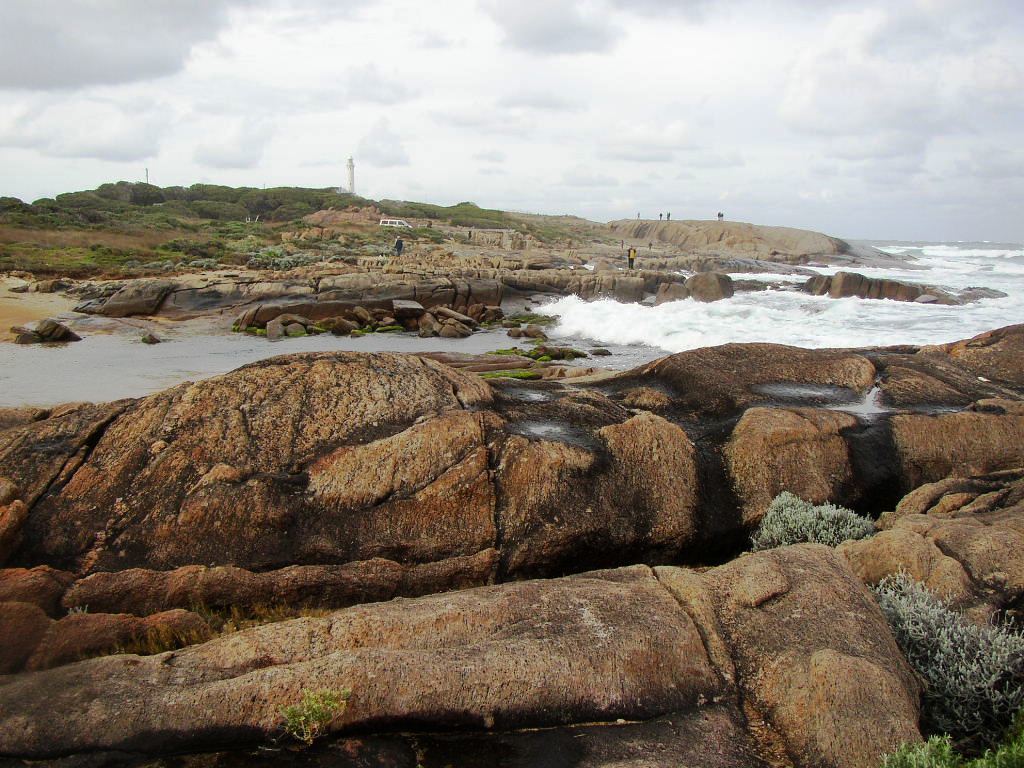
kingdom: Plantae
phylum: Tracheophyta
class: Magnoliopsida
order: Asterales
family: Asteraceae
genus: Calocephalus
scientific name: Calocephalus brownii
